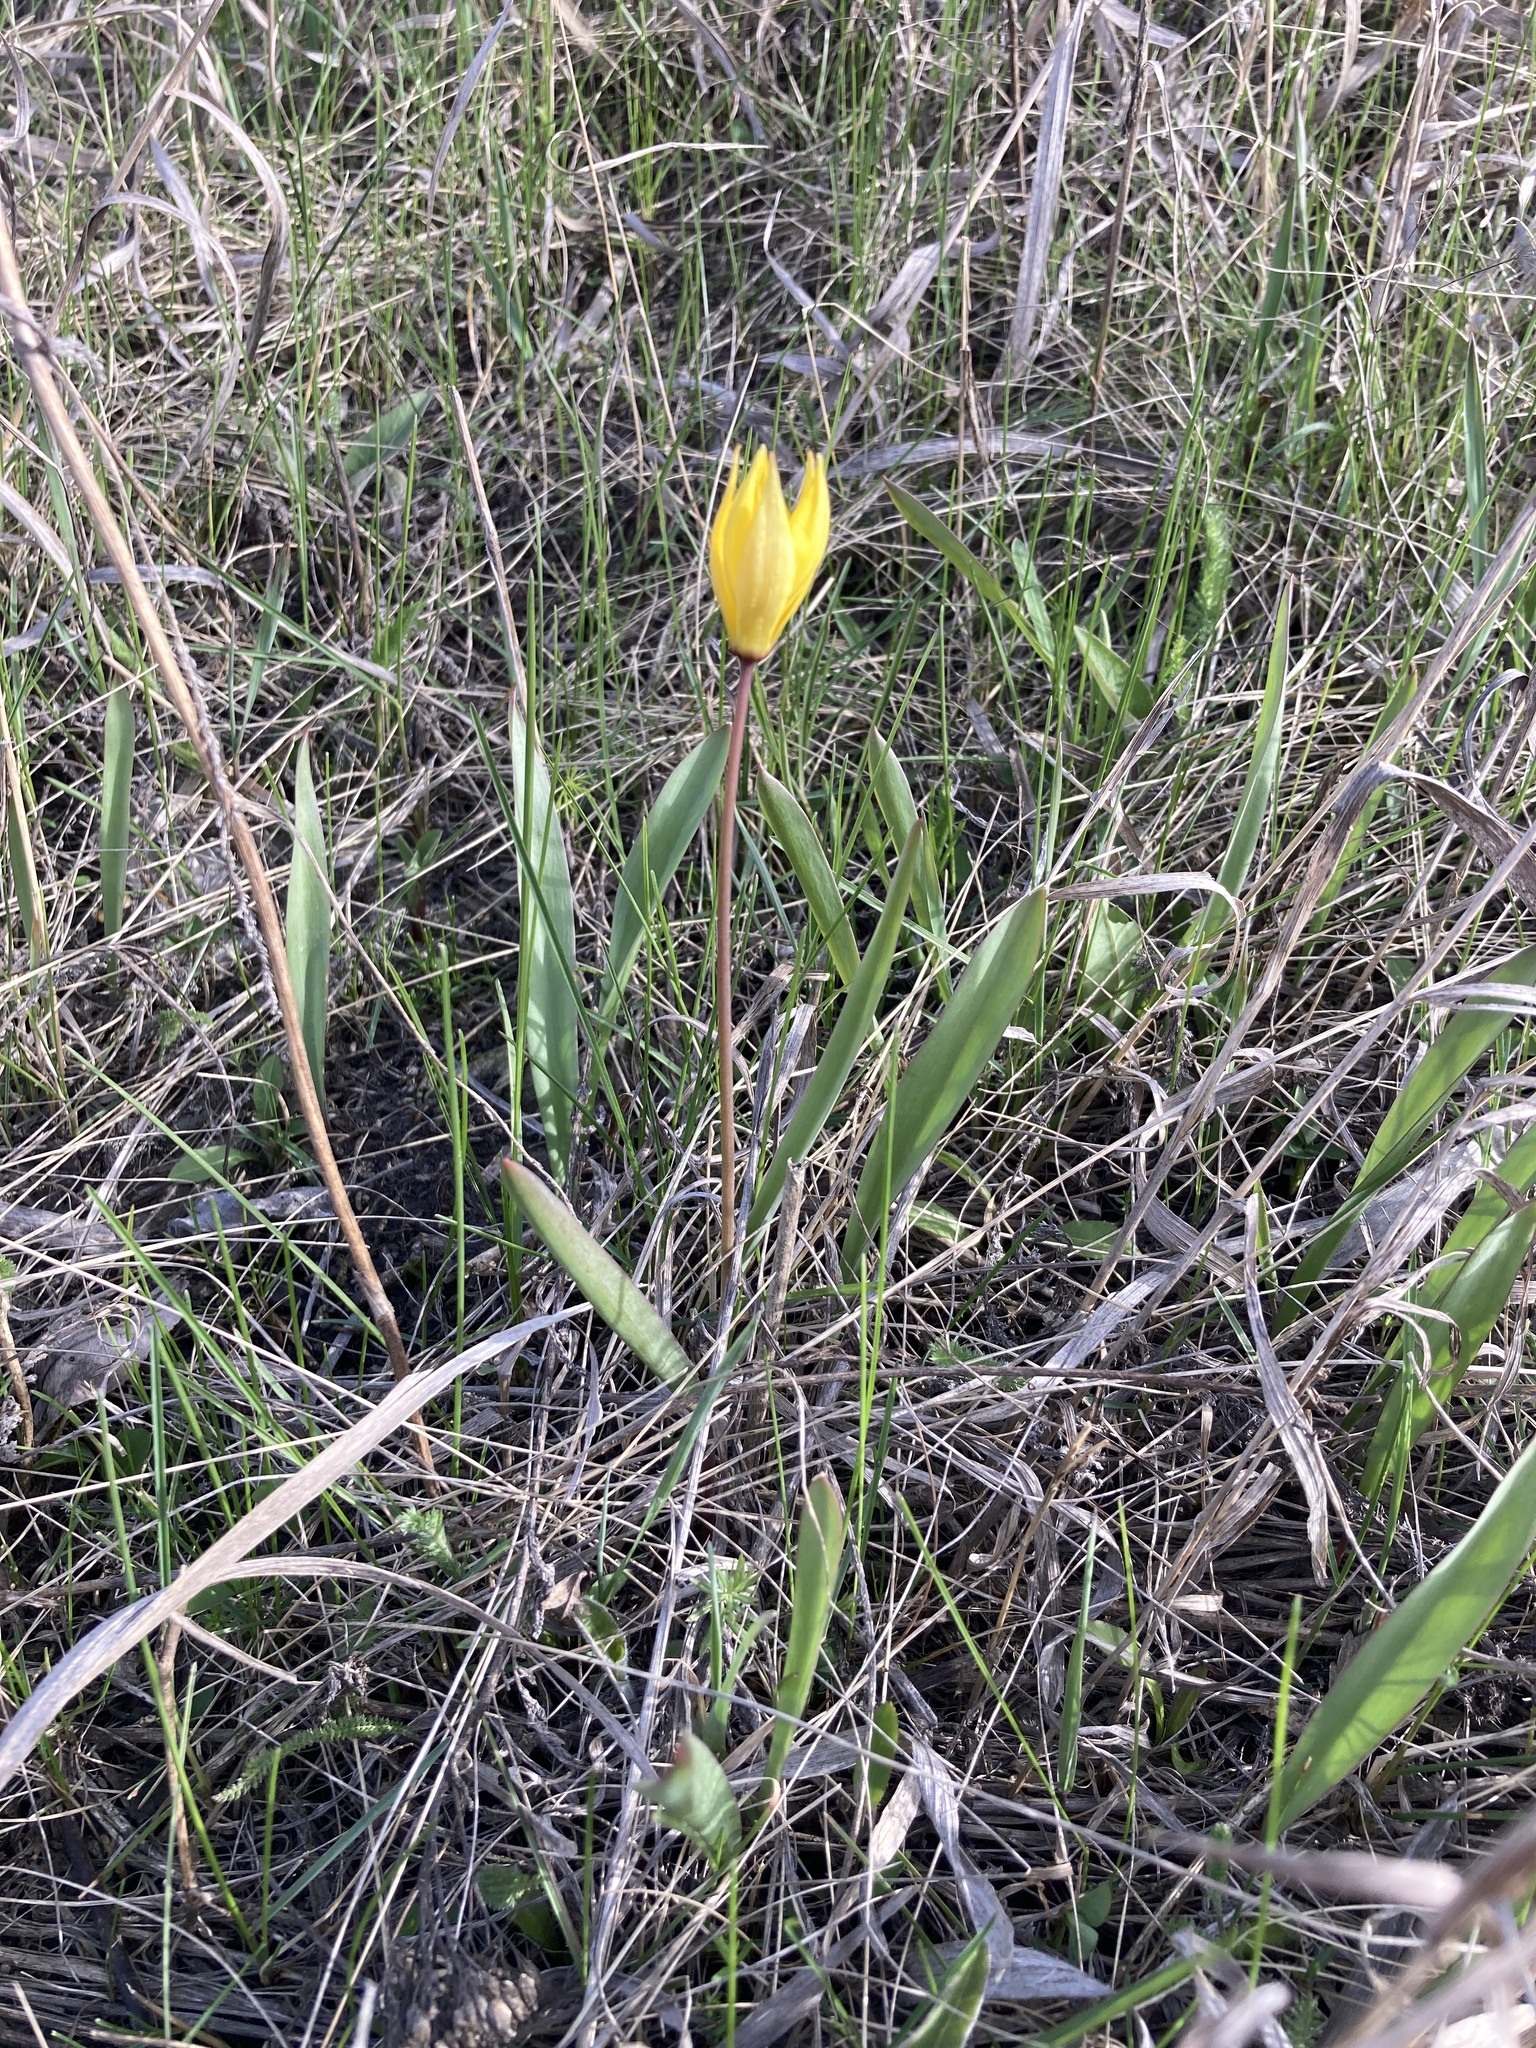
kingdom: Plantae
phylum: Tracheophyta
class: Liliopsida
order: Liliales
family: Liliaceae
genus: Tulipa
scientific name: Tulipa sylvestris
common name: Wild tulip
